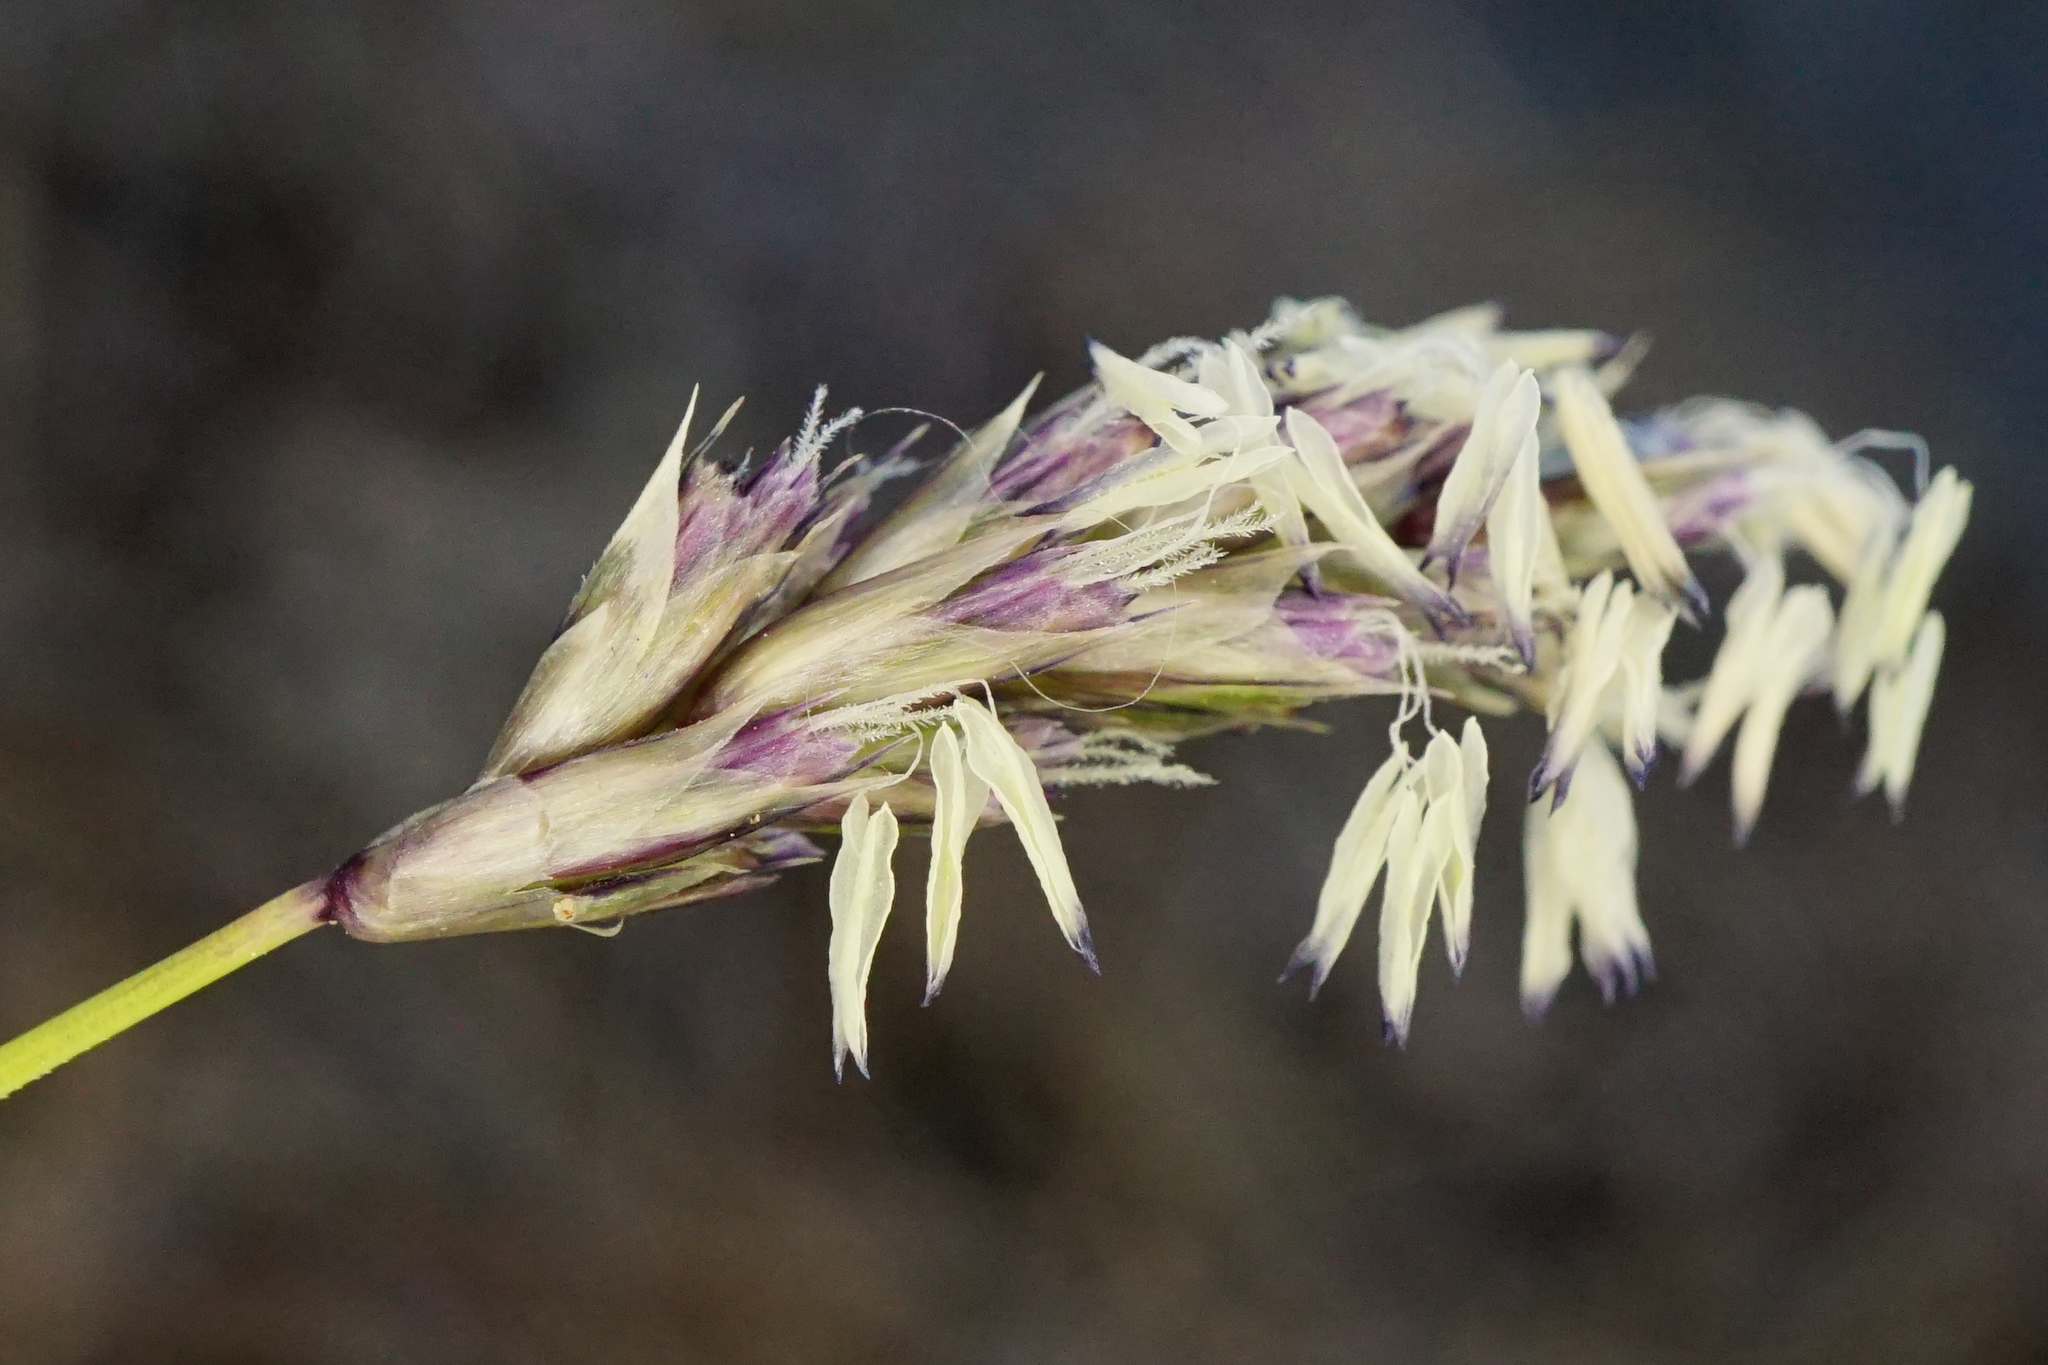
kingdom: Plantae
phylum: Tracheophyta
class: Liliopsida
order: Poales
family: Poaceae
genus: Sesleria
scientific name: Sesleria caerulea
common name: Blue moor-grass
